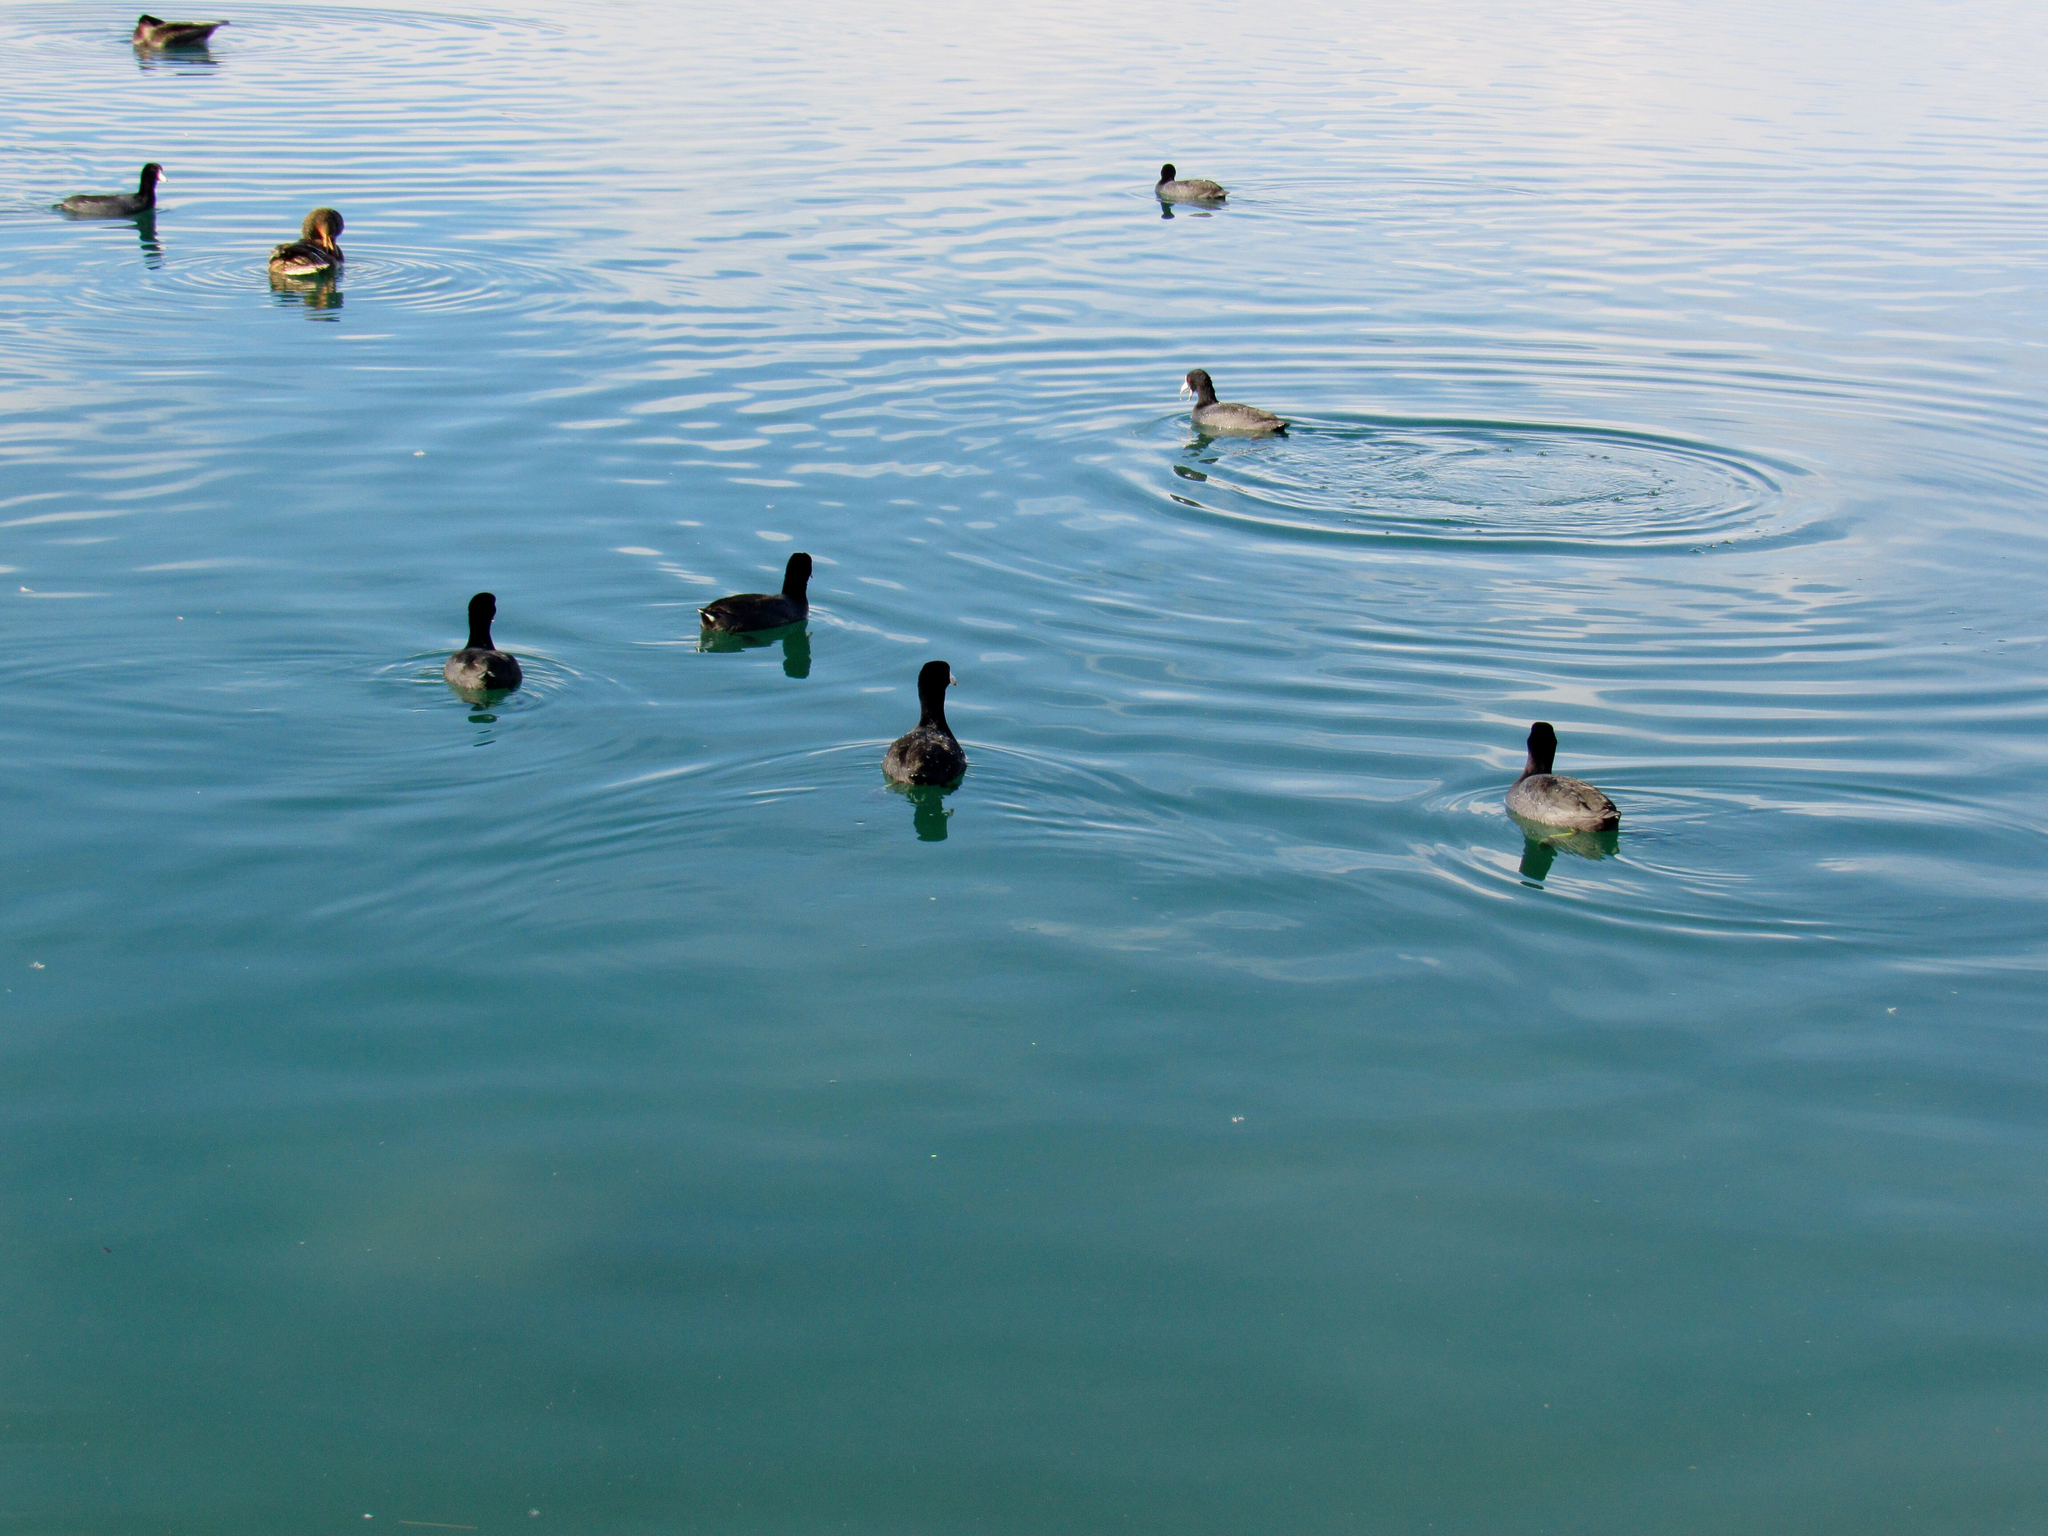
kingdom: Animalia
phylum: Chordata
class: Aves
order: Gruiformes
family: Rallidae
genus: Fulica
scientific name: Fulica americana
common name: American coot
